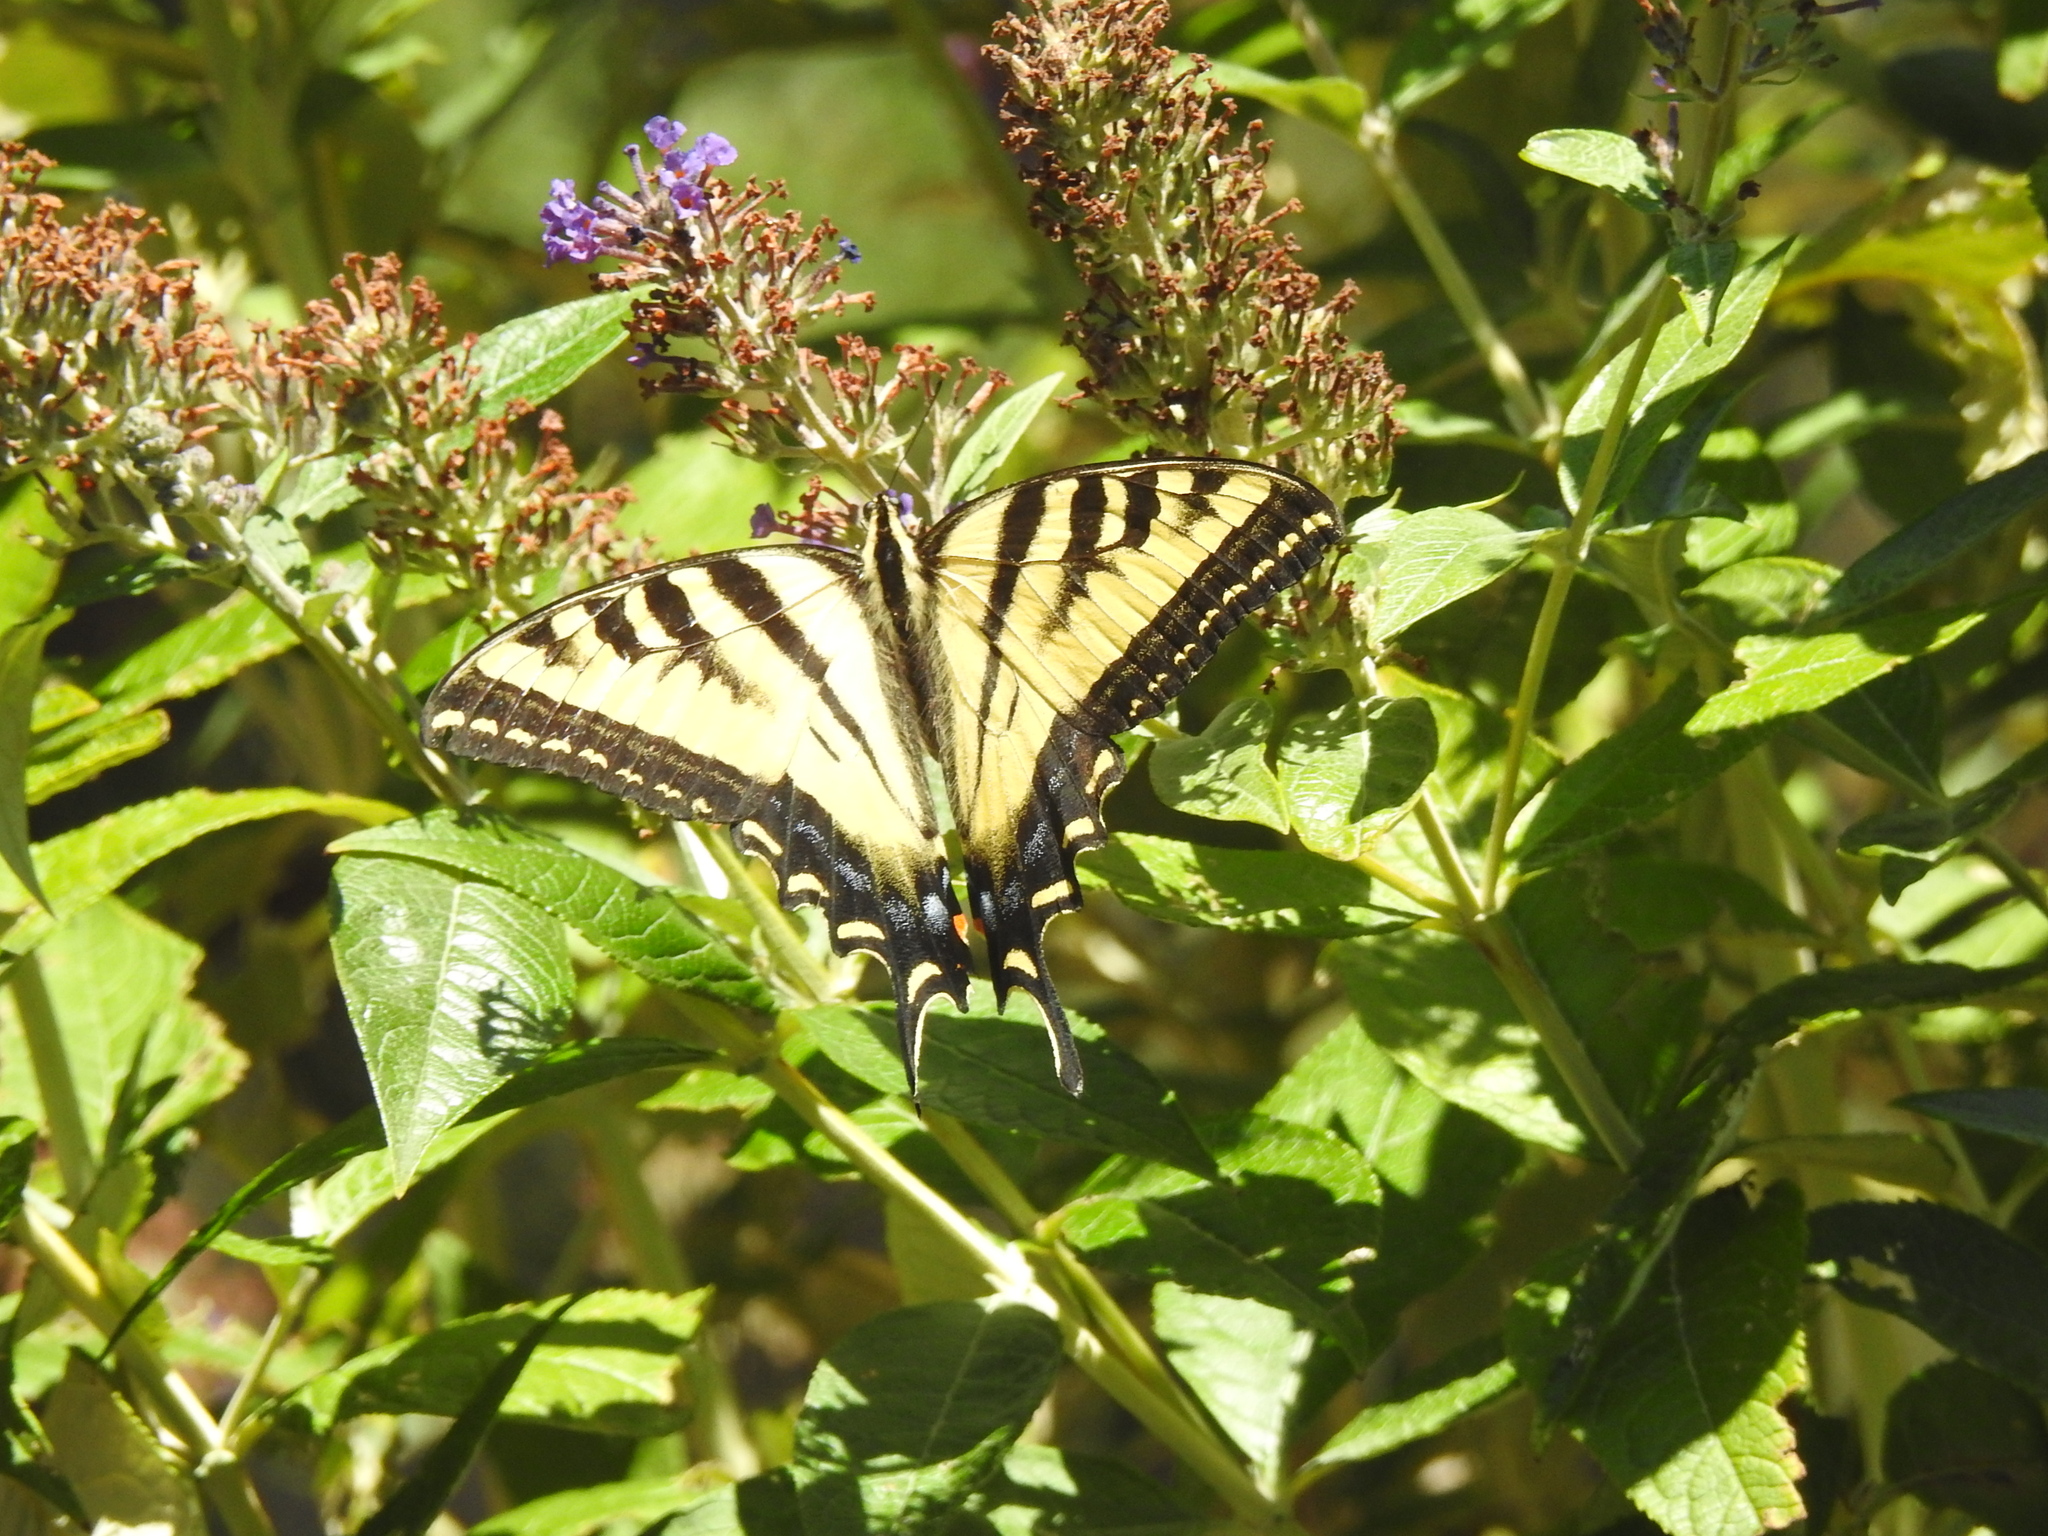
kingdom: Animalia
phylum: Arthropoda
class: Insecta
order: Lepidoptera
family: Papilionidae
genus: Papilio
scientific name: Papilio rutulus
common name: Western tiger swallowtail
